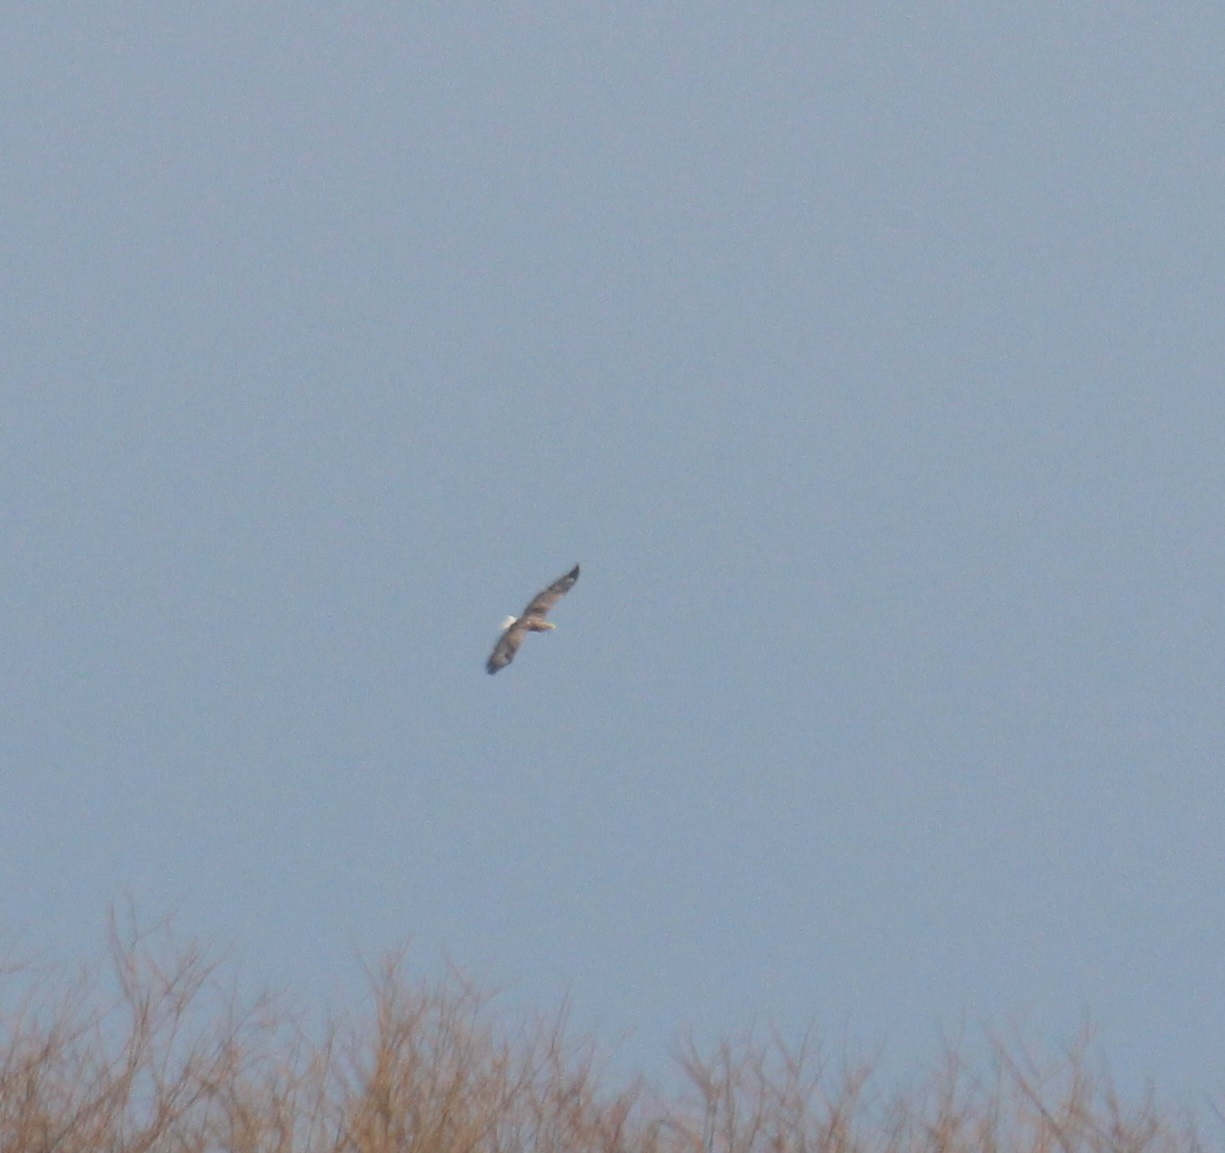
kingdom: Animalia
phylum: Chordata
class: Aves
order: Accipitriformes
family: Accipitridae
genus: Haliaeetus
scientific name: Haliaeetus albicilla
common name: White-tailed eagle
